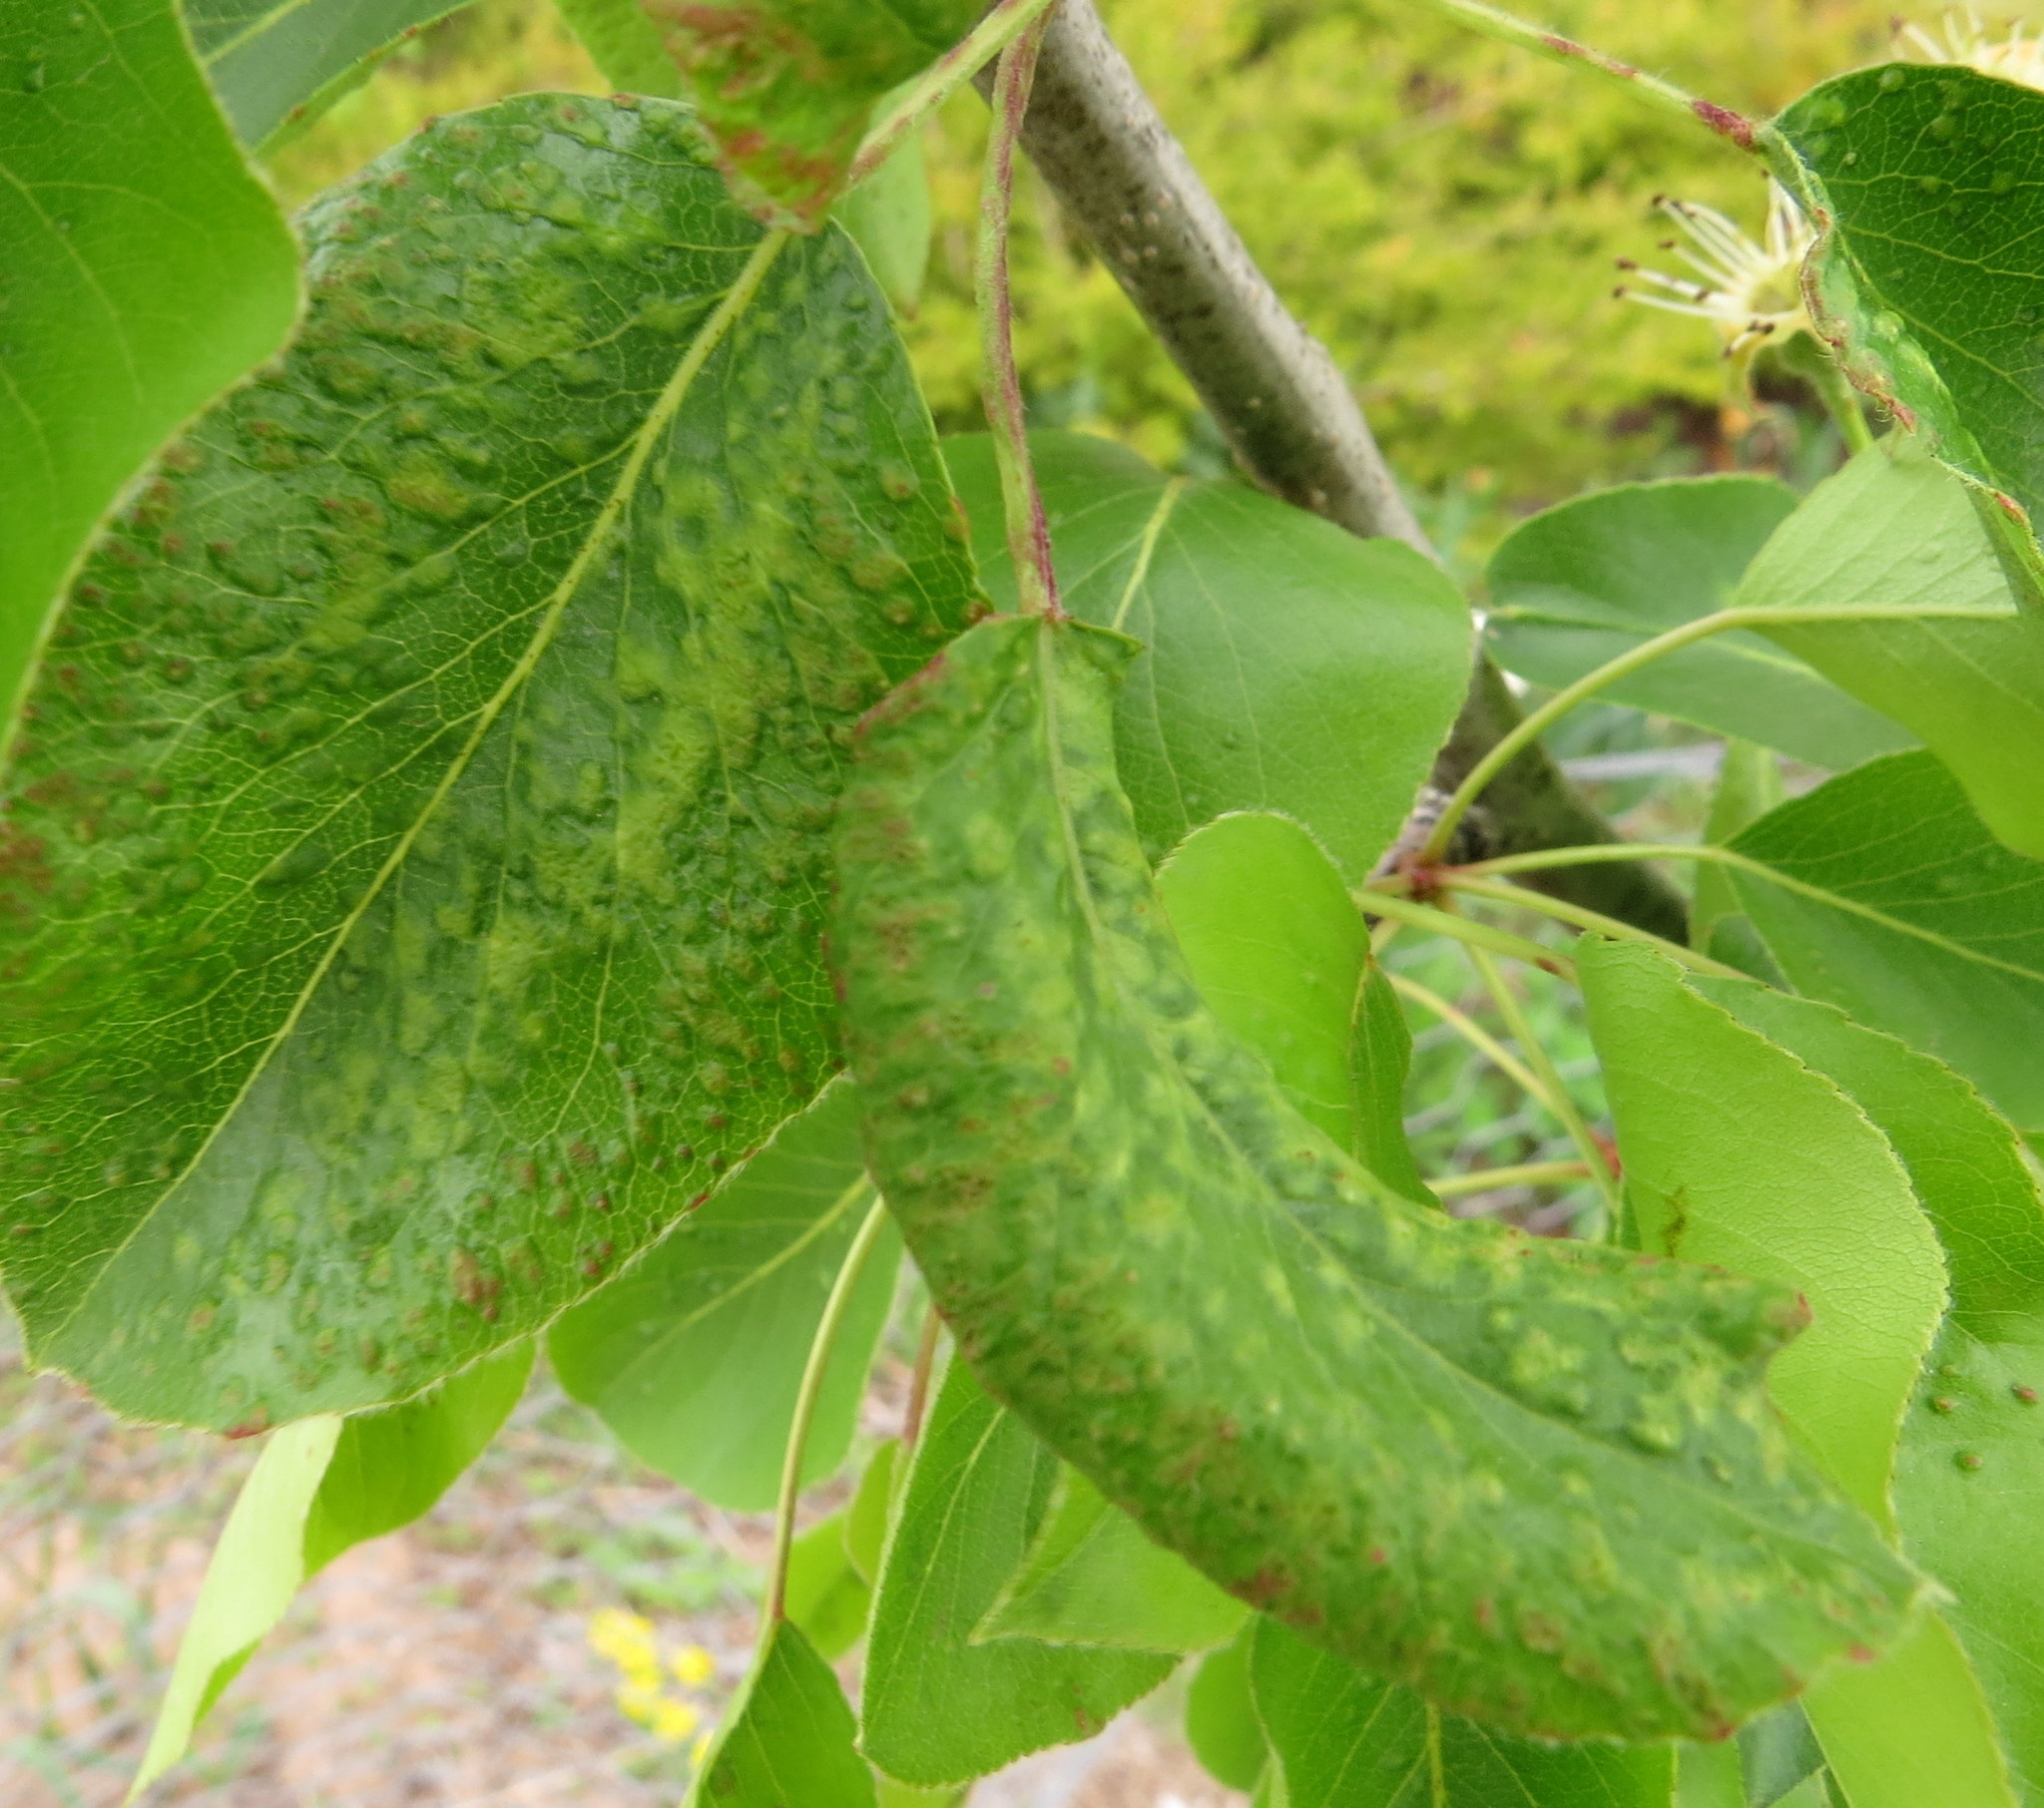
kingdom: Animalia
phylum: Arthropoda
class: Arachnida
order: Trombidiformes
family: Eriophyidae
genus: Eriophyes
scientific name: Eriophyes pyri
